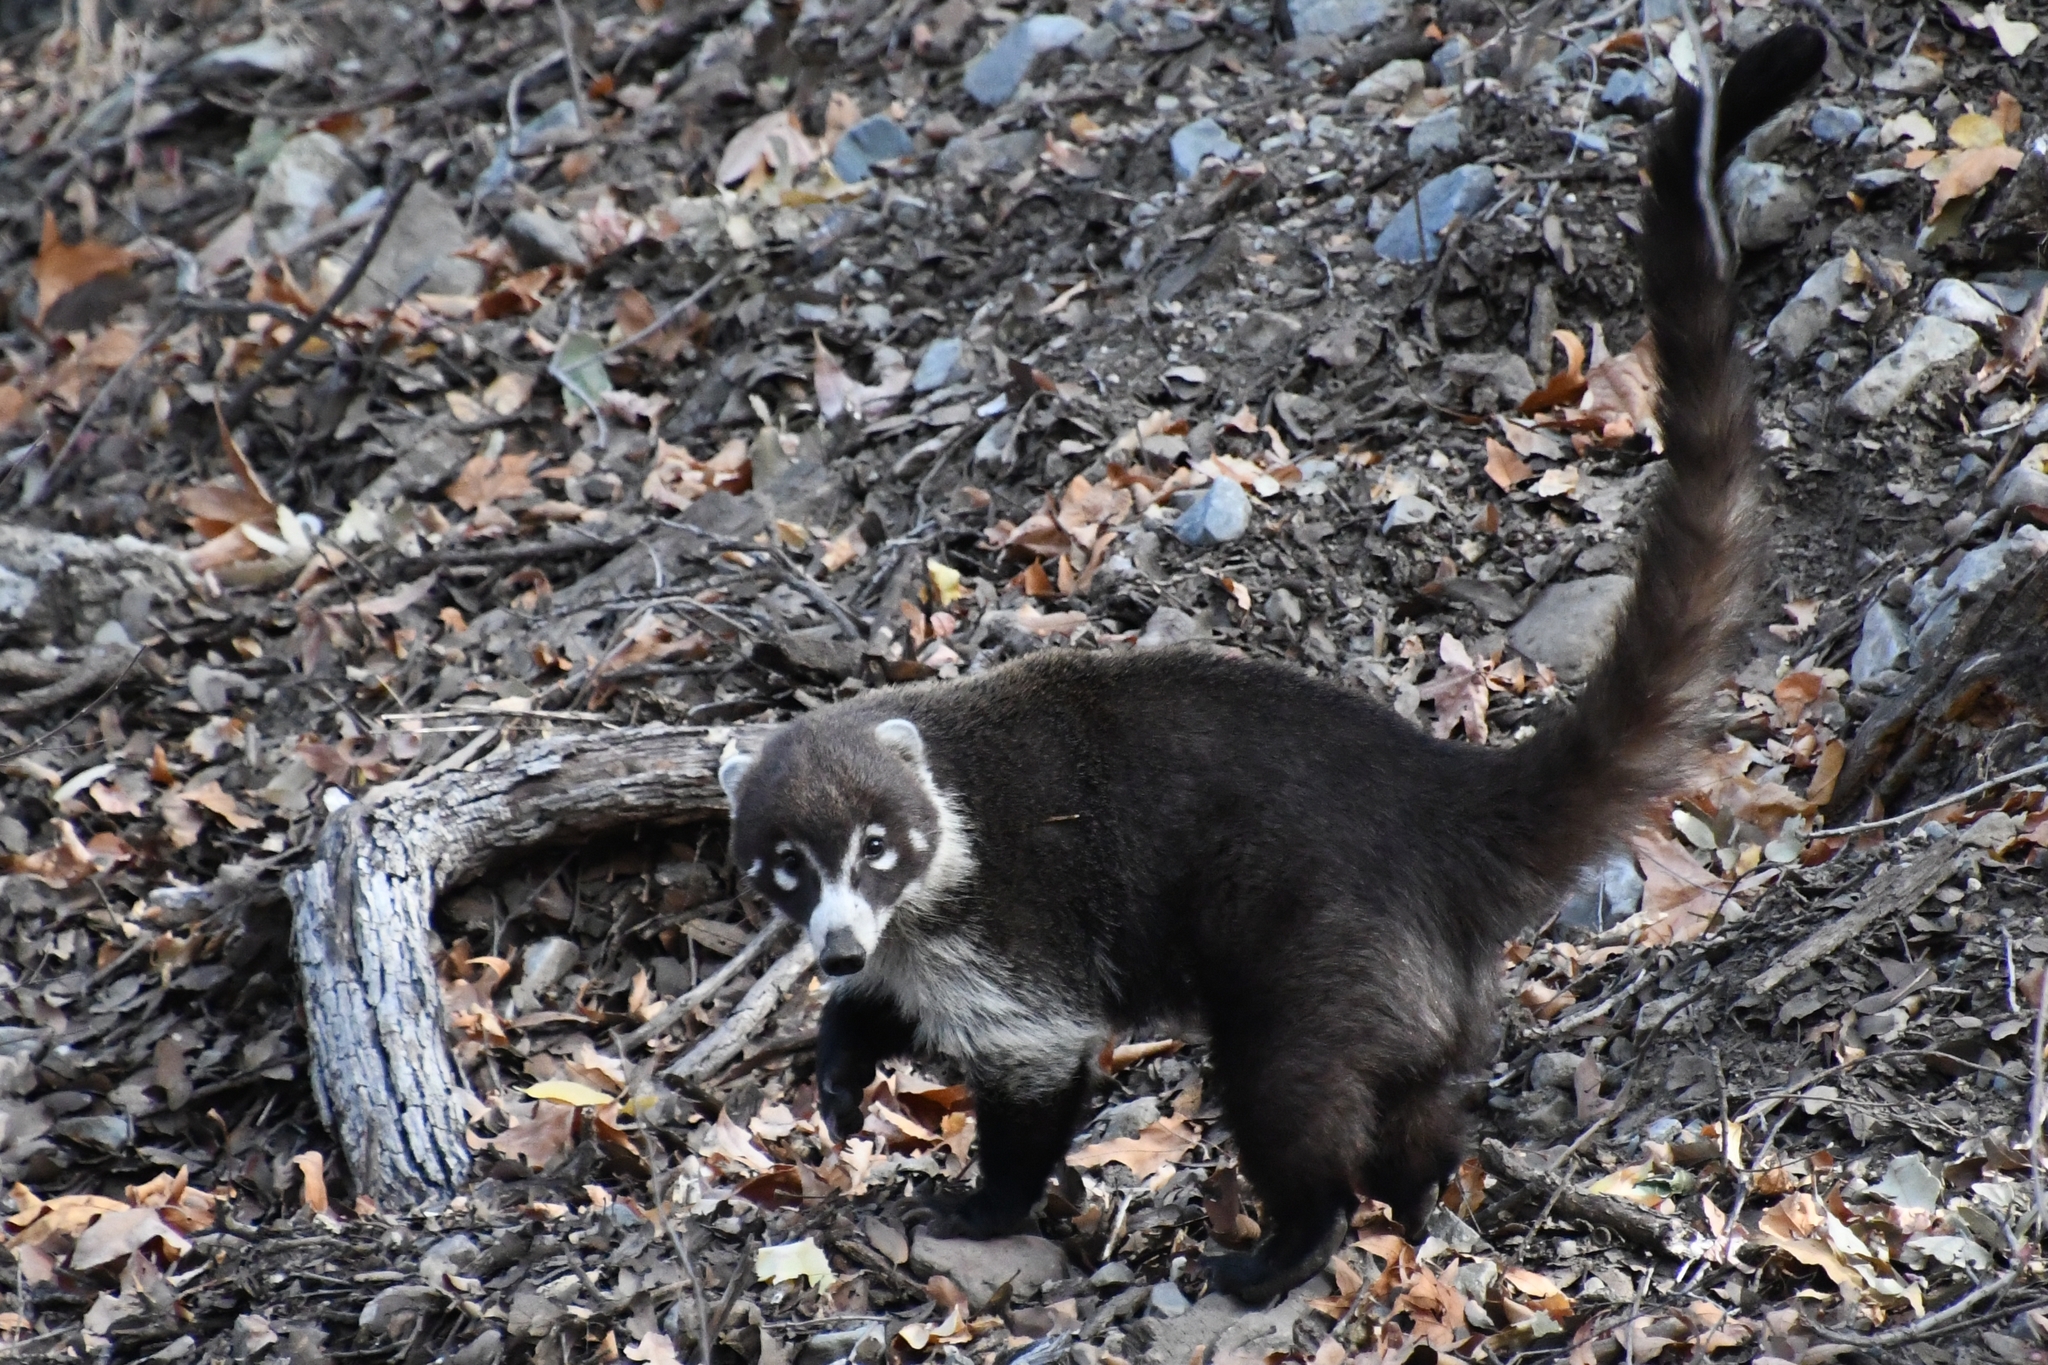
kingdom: Animalia
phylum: Chordata
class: Mammalia
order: Carnivora
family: Procyonidae
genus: Nasua
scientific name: Nasua narica
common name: White-nosed coati
